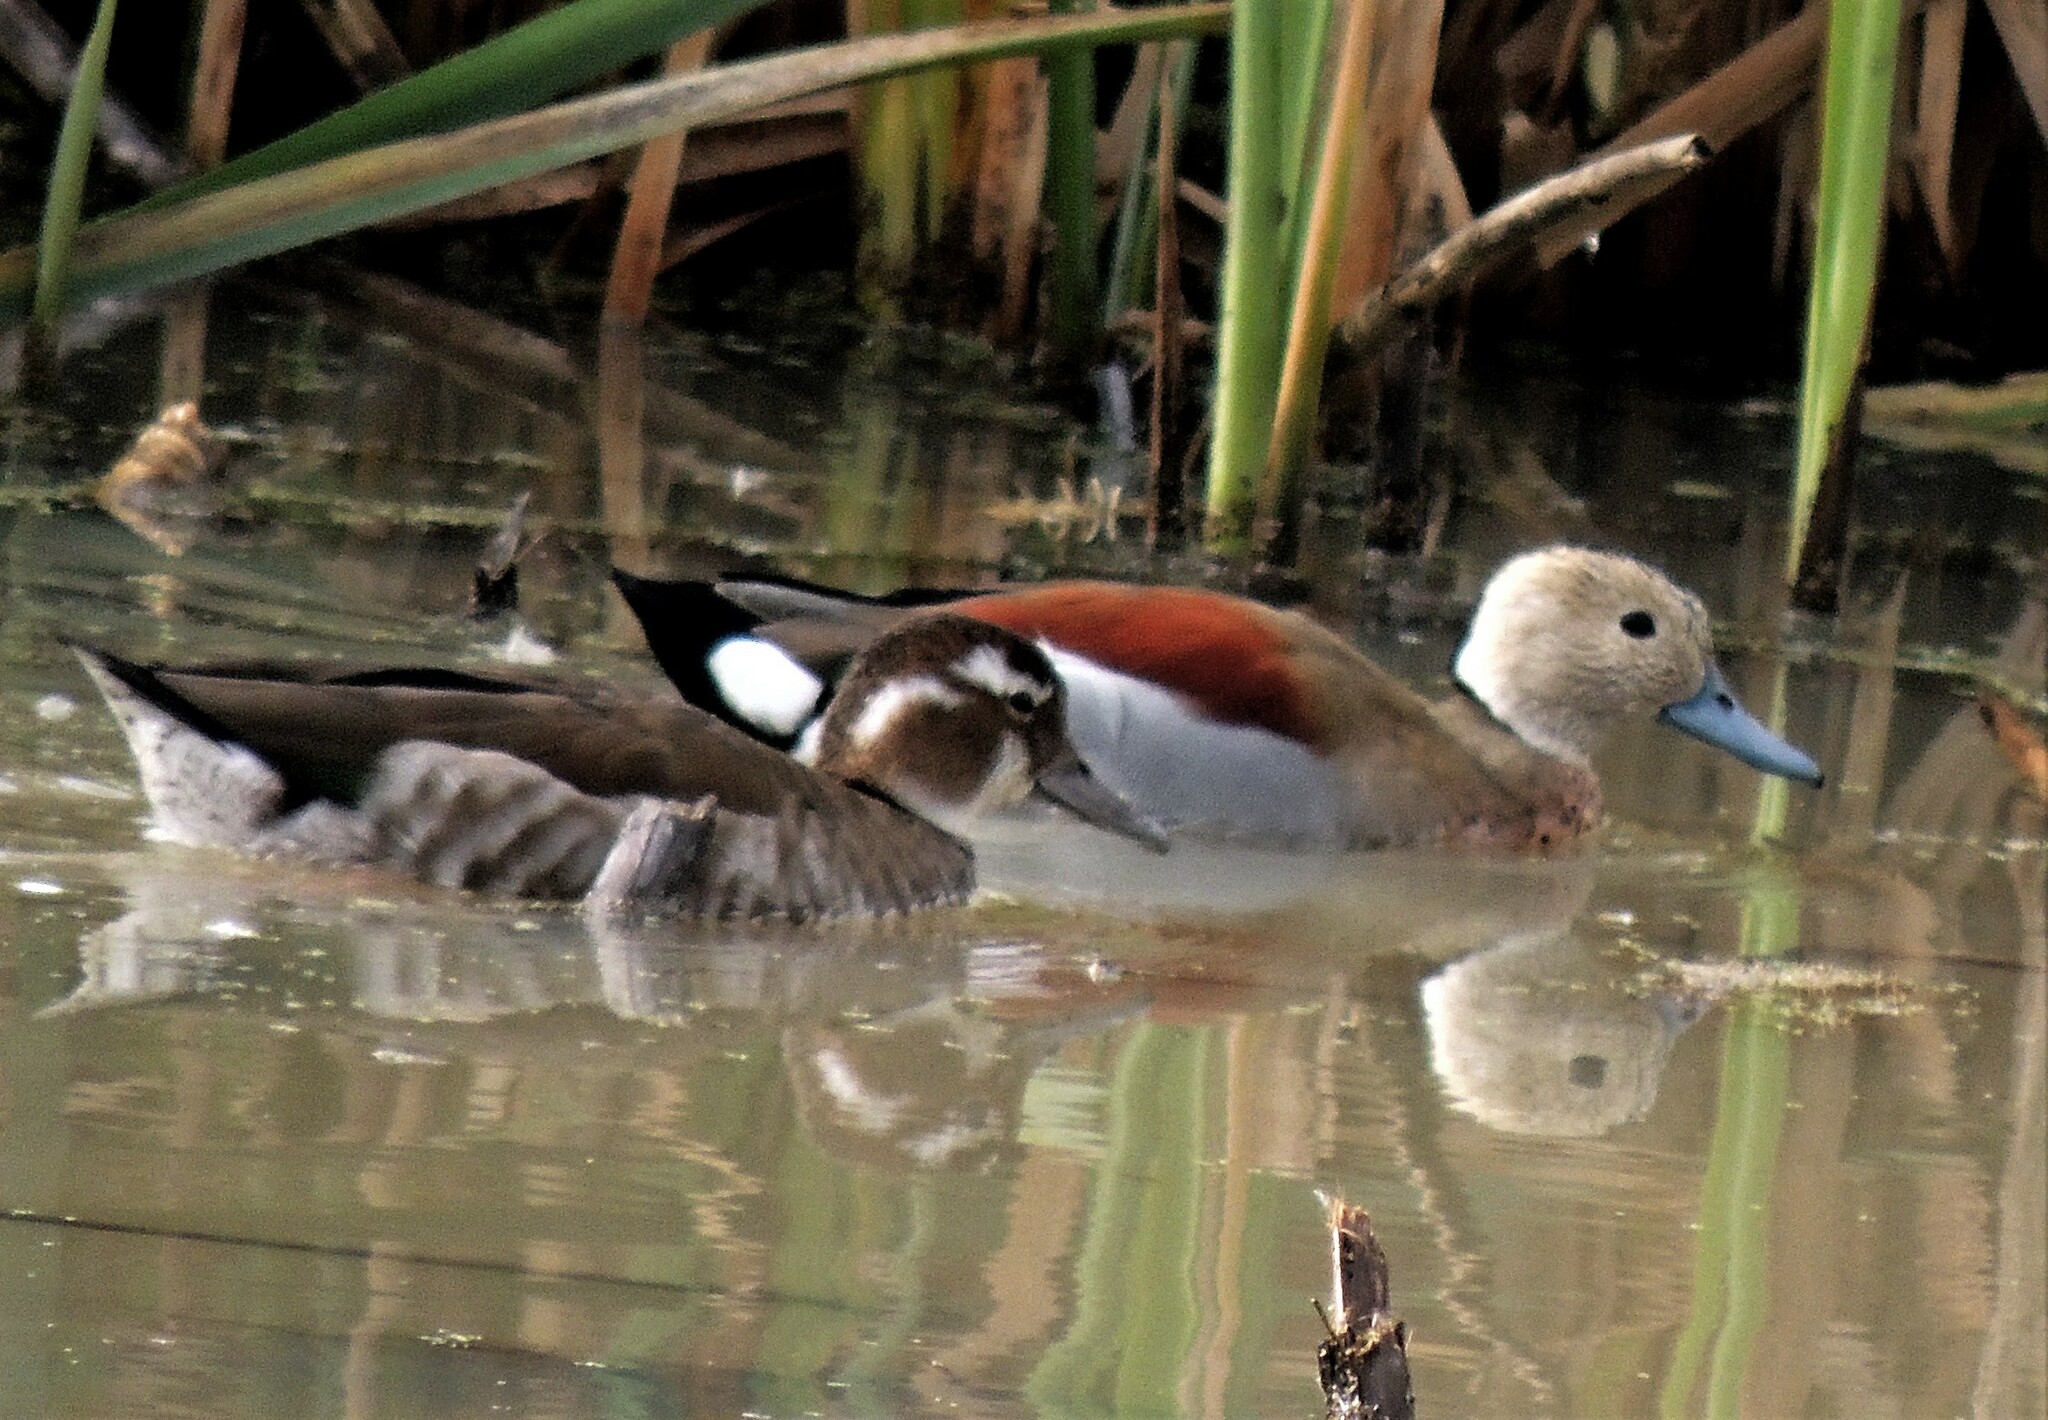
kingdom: Animalia
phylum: Chordata
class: Aves
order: Anseriformes
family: Anatidae
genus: Callonetta
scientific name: Callonetta leucophrys
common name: Ringed teal
